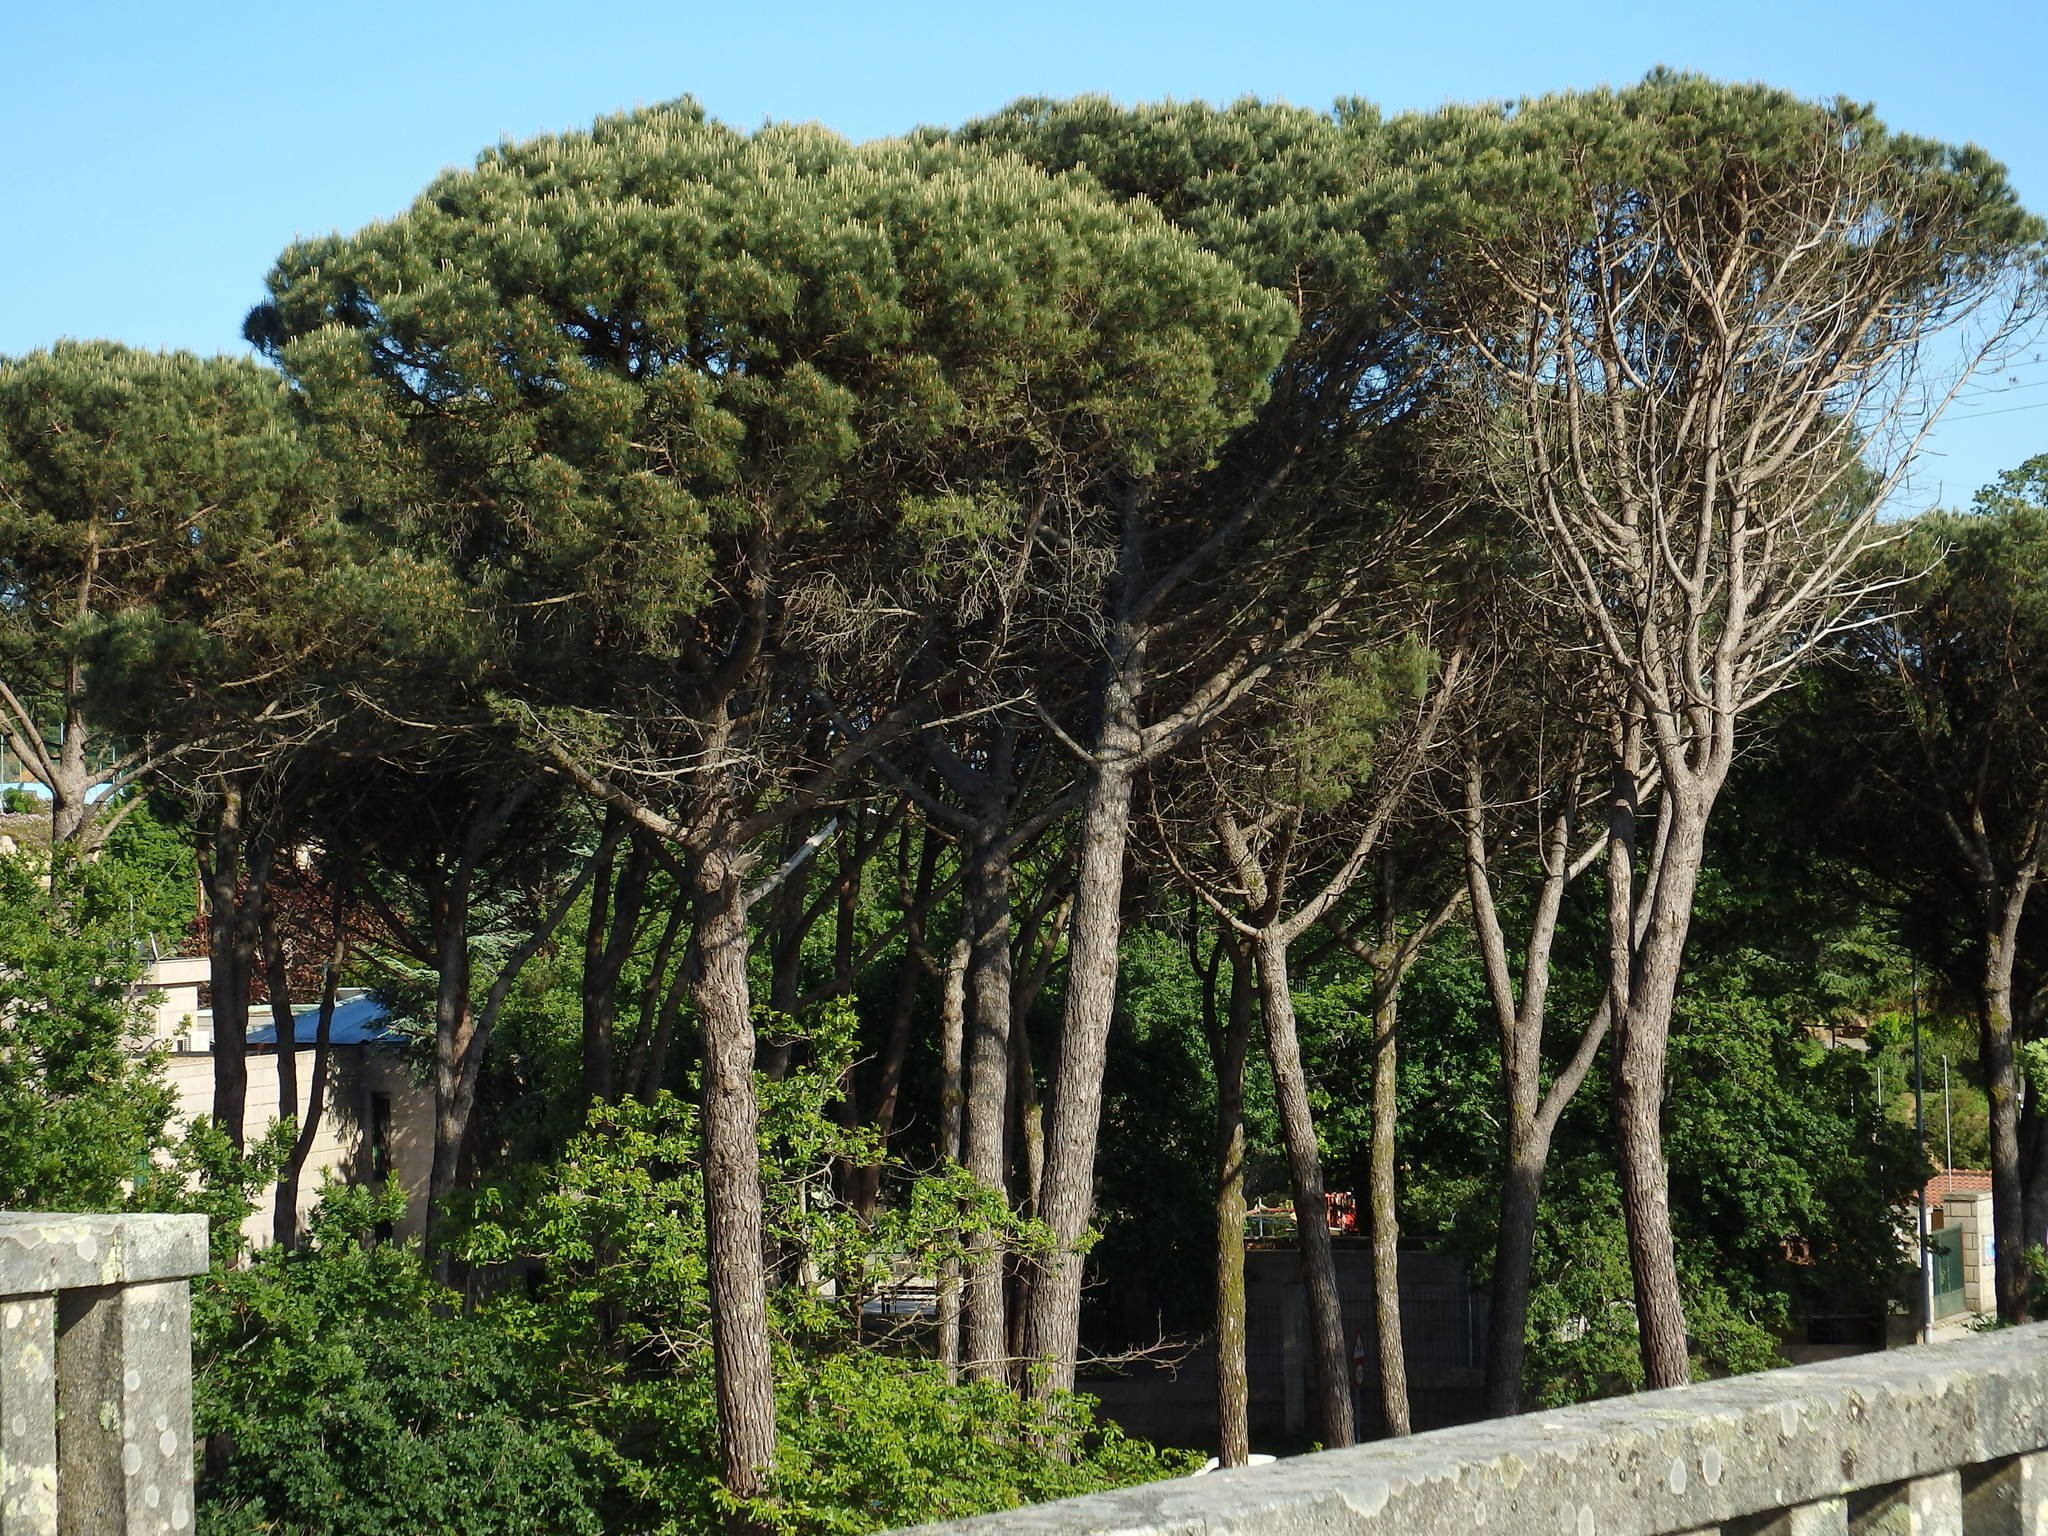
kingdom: Plantae
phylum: Tracheophyta
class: Pinopsida
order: Pinales
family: Pinaceae
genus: Pinus
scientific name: Pinus pinea
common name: Italian stone pine
